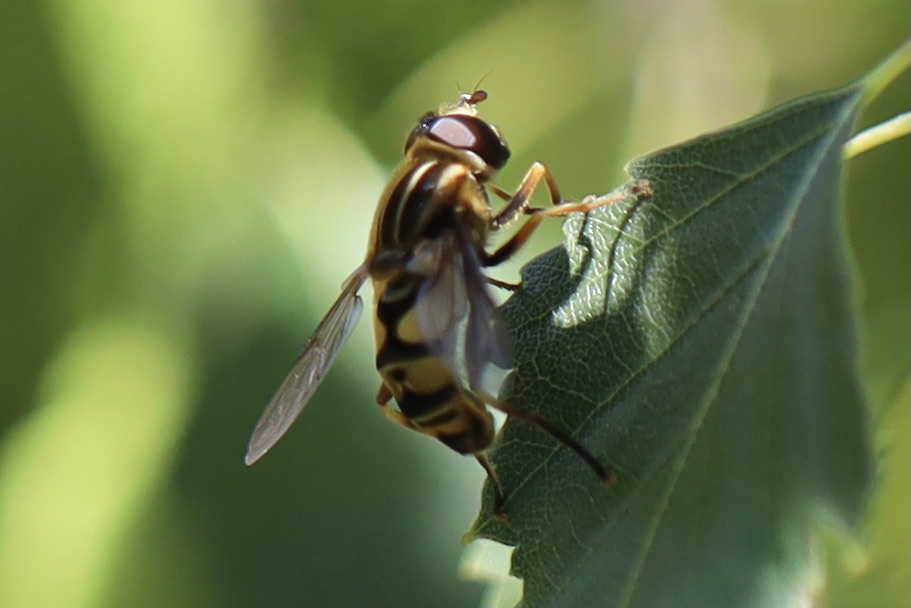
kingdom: Animalia
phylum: Arthropoda
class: Insecta
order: Diptera
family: Syrphidae
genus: Helophilus
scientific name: Helophilus fasciatus
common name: Narrow-headed marsh fly
